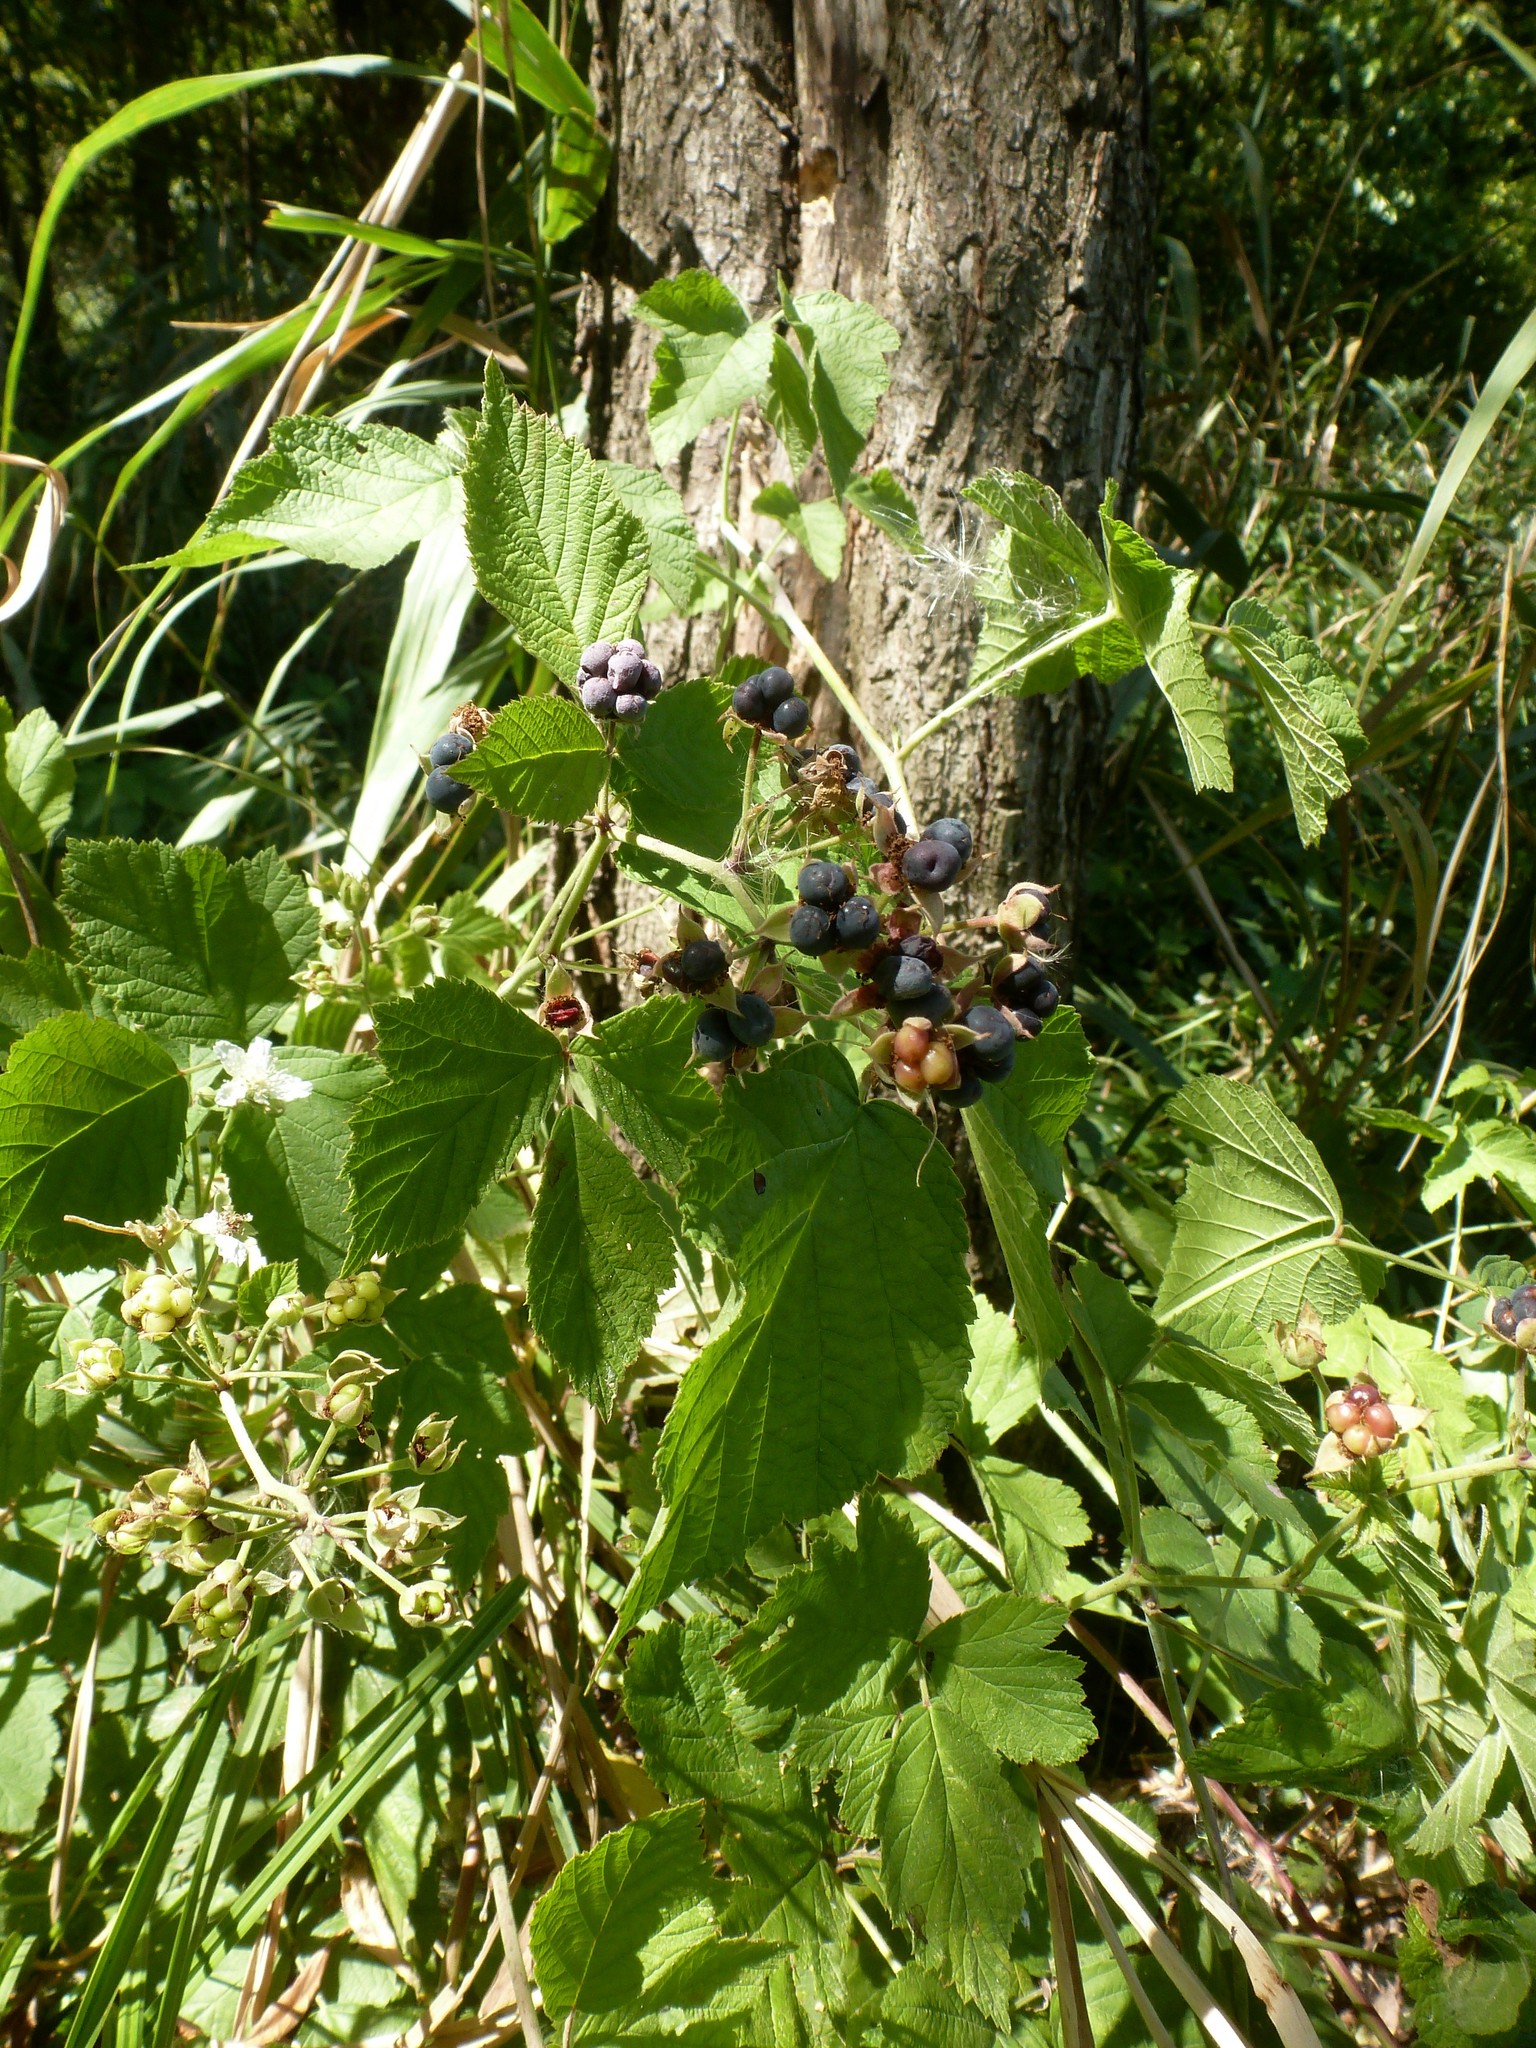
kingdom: Plantae
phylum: Tracheophyta
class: Magnoliopsida
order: Rosales
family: Rosaceae
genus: Rubus
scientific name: Rubus caesius
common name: Dewberry
